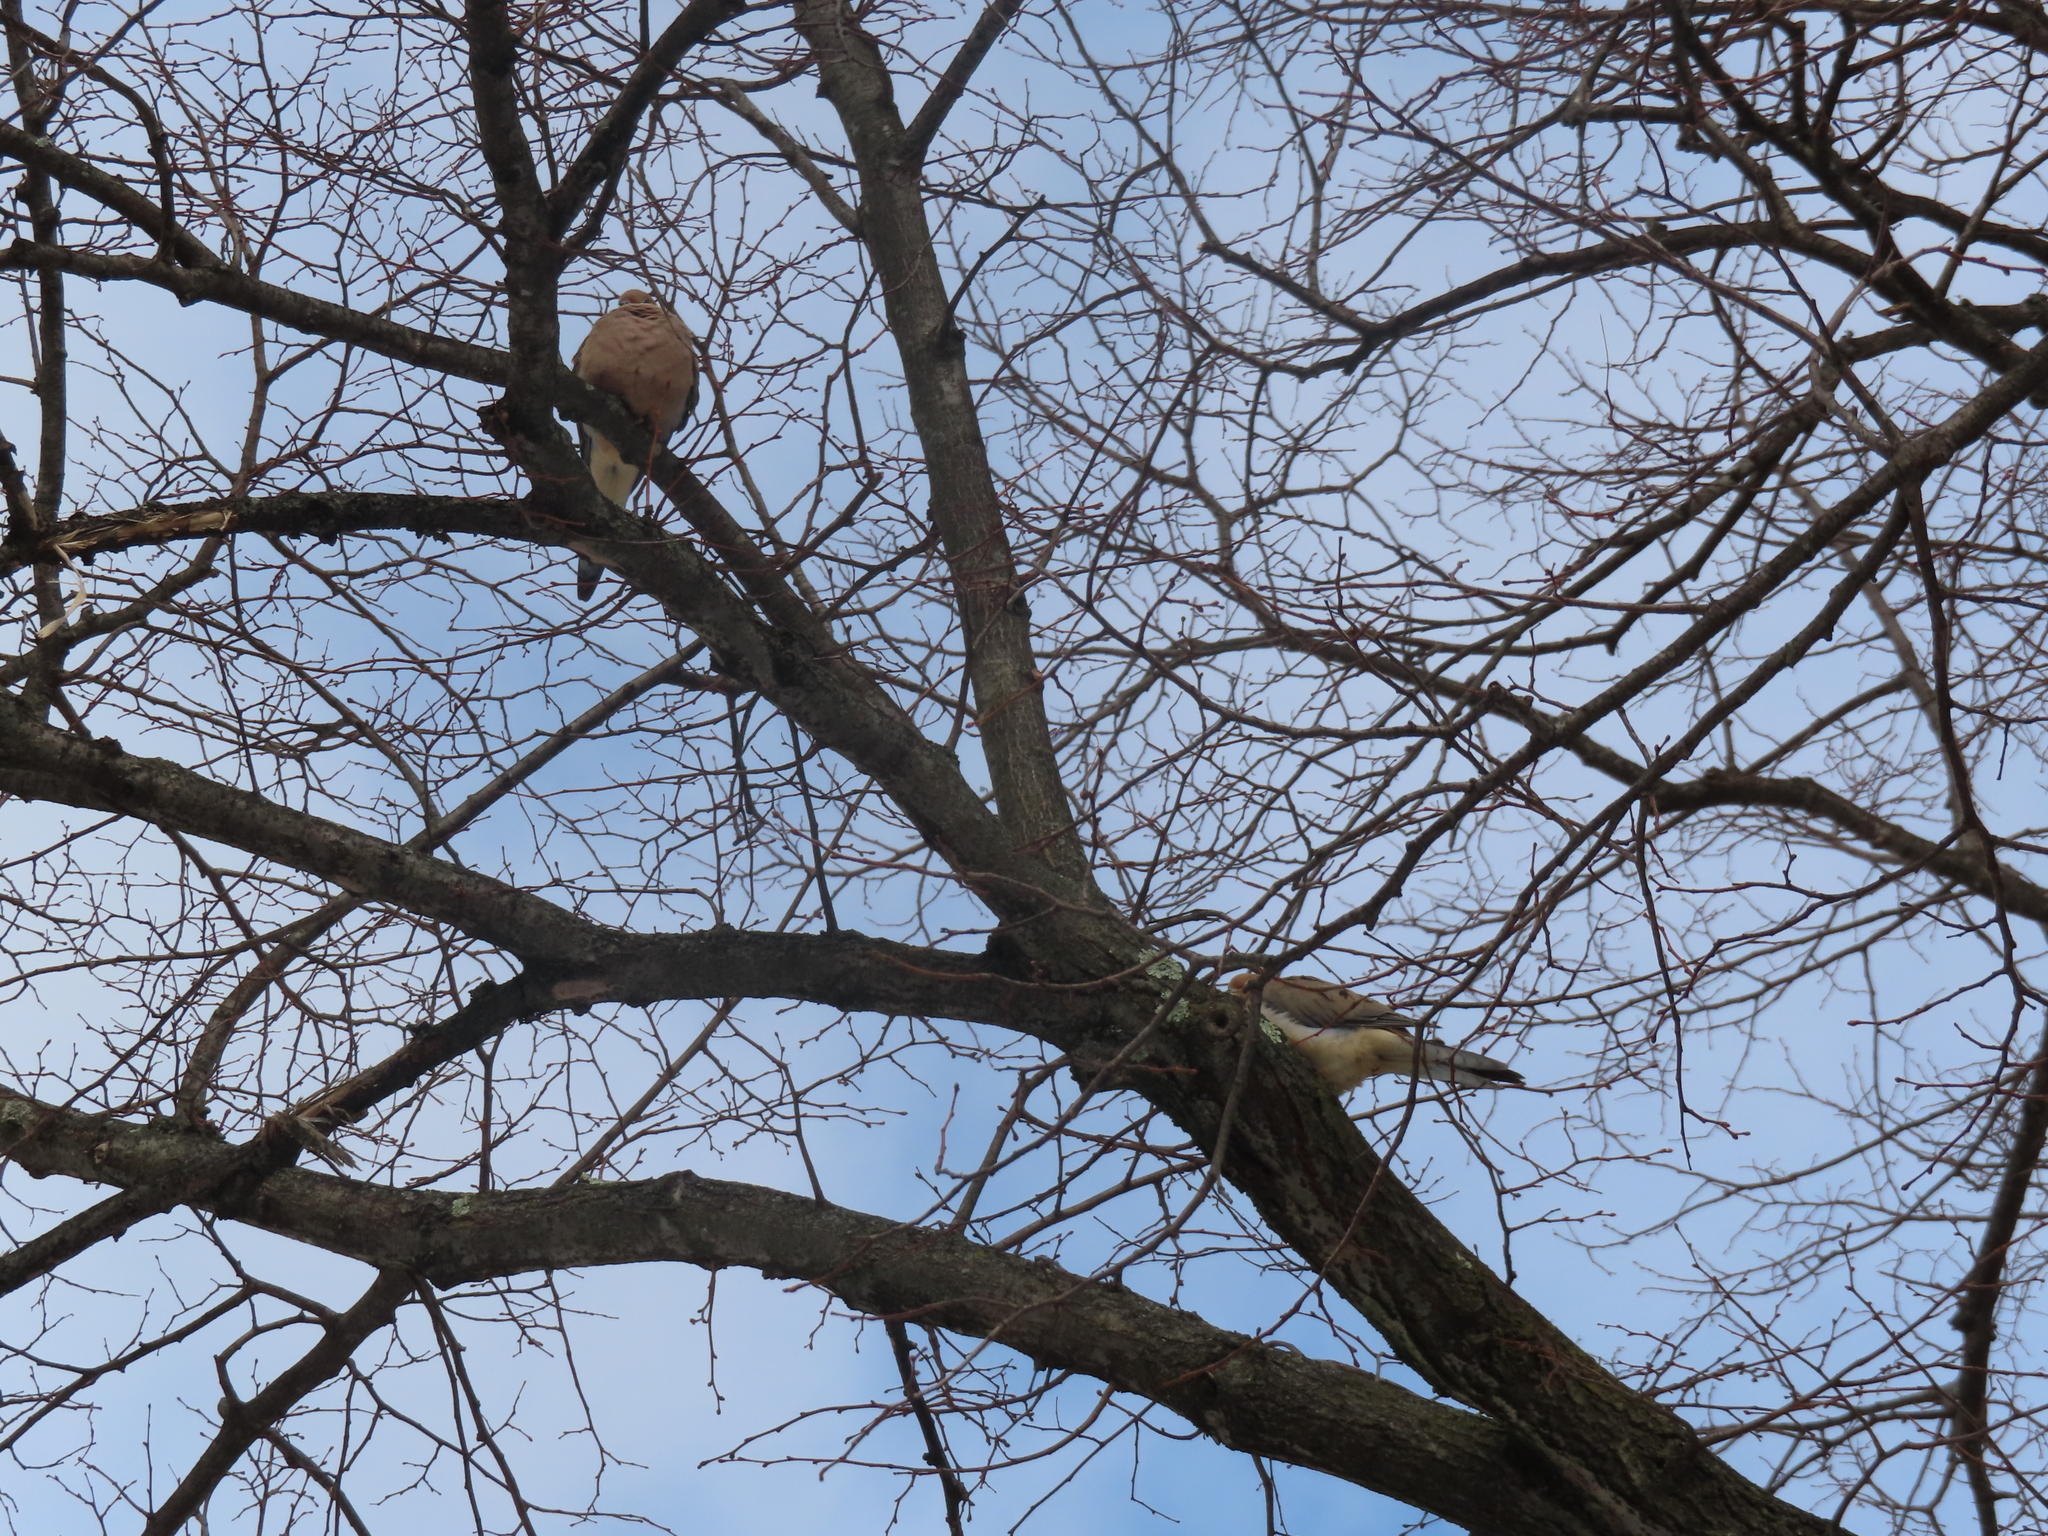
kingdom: Animalia
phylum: Chordata
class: Aves
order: Columbiformes
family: Columbidae
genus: Zenaida
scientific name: Zenaida macroura
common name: Mourning dove
